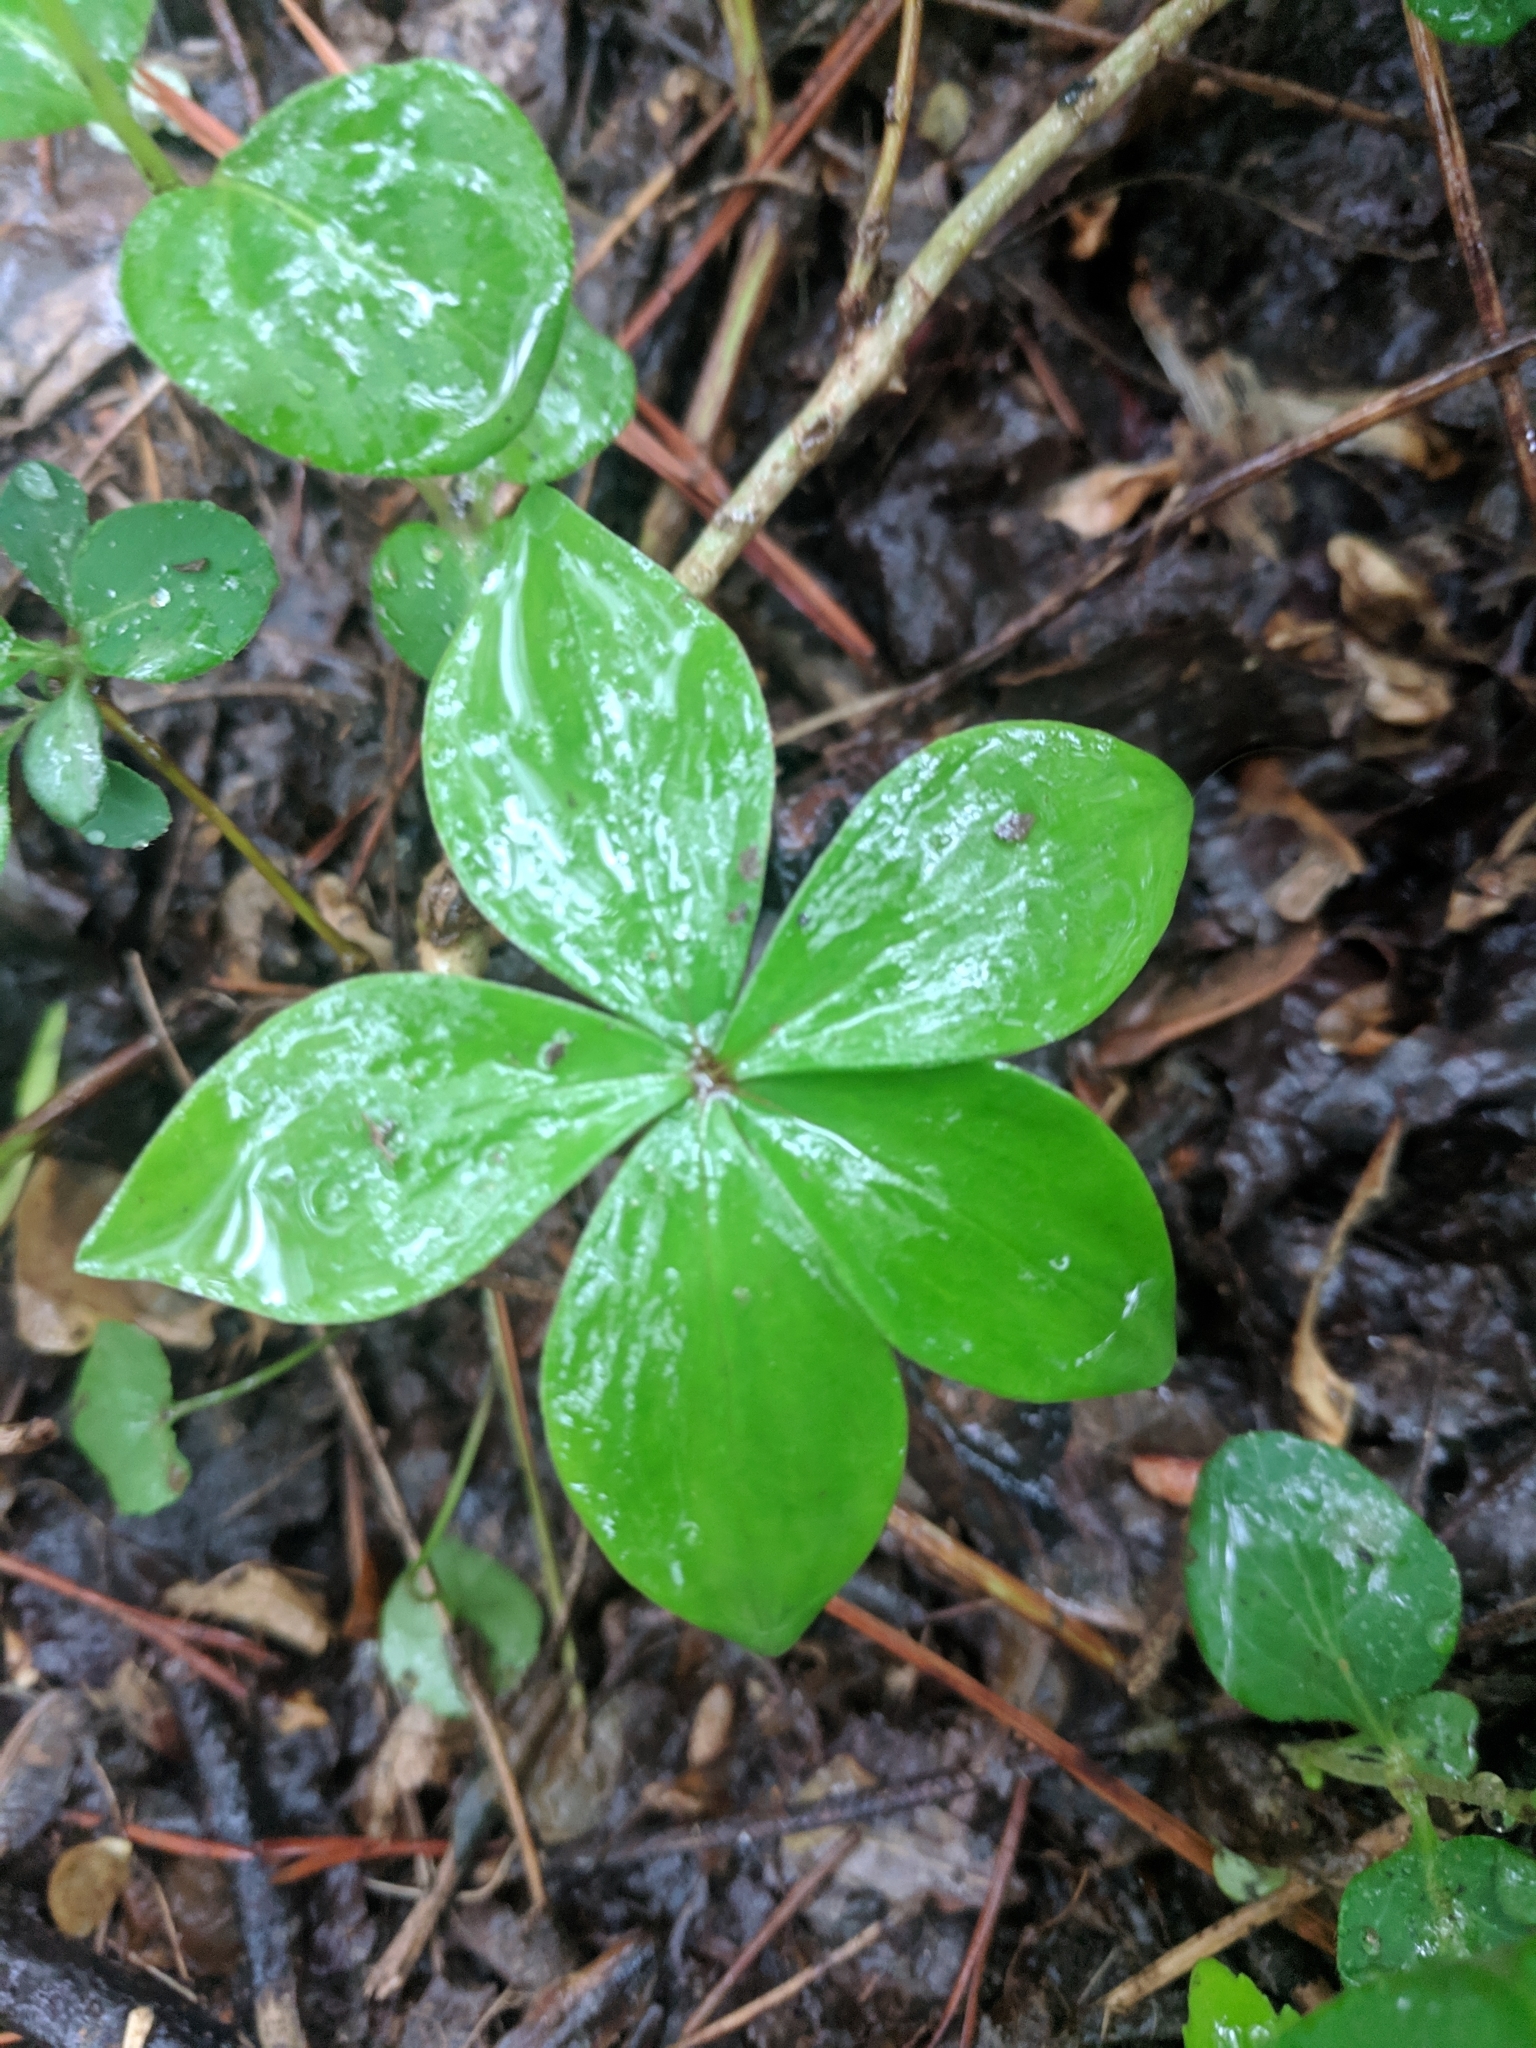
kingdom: Plantae
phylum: Tracheophyta
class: Liliopsida
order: Liliales
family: Liliaceae
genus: Medeola
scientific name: Medeola virginiana
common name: Indian cucumber-root
